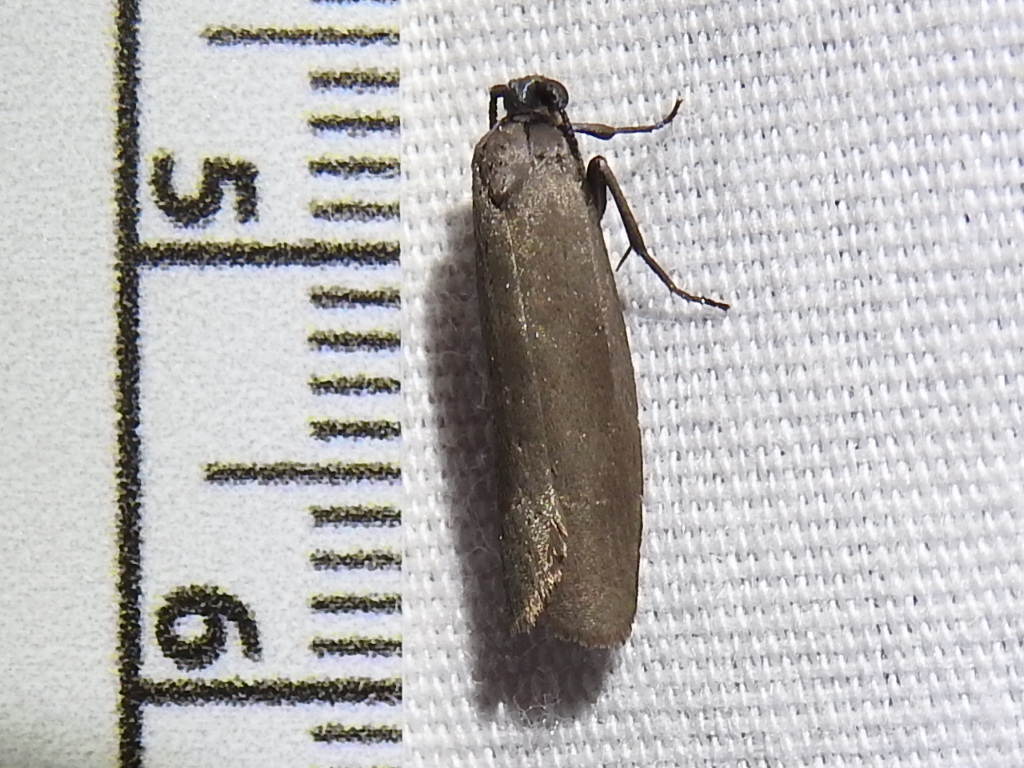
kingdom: Animalia
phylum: Arthropoda
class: Insecta
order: Lepidoptera
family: Urodidae
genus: Urodus
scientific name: Urodus parvula
